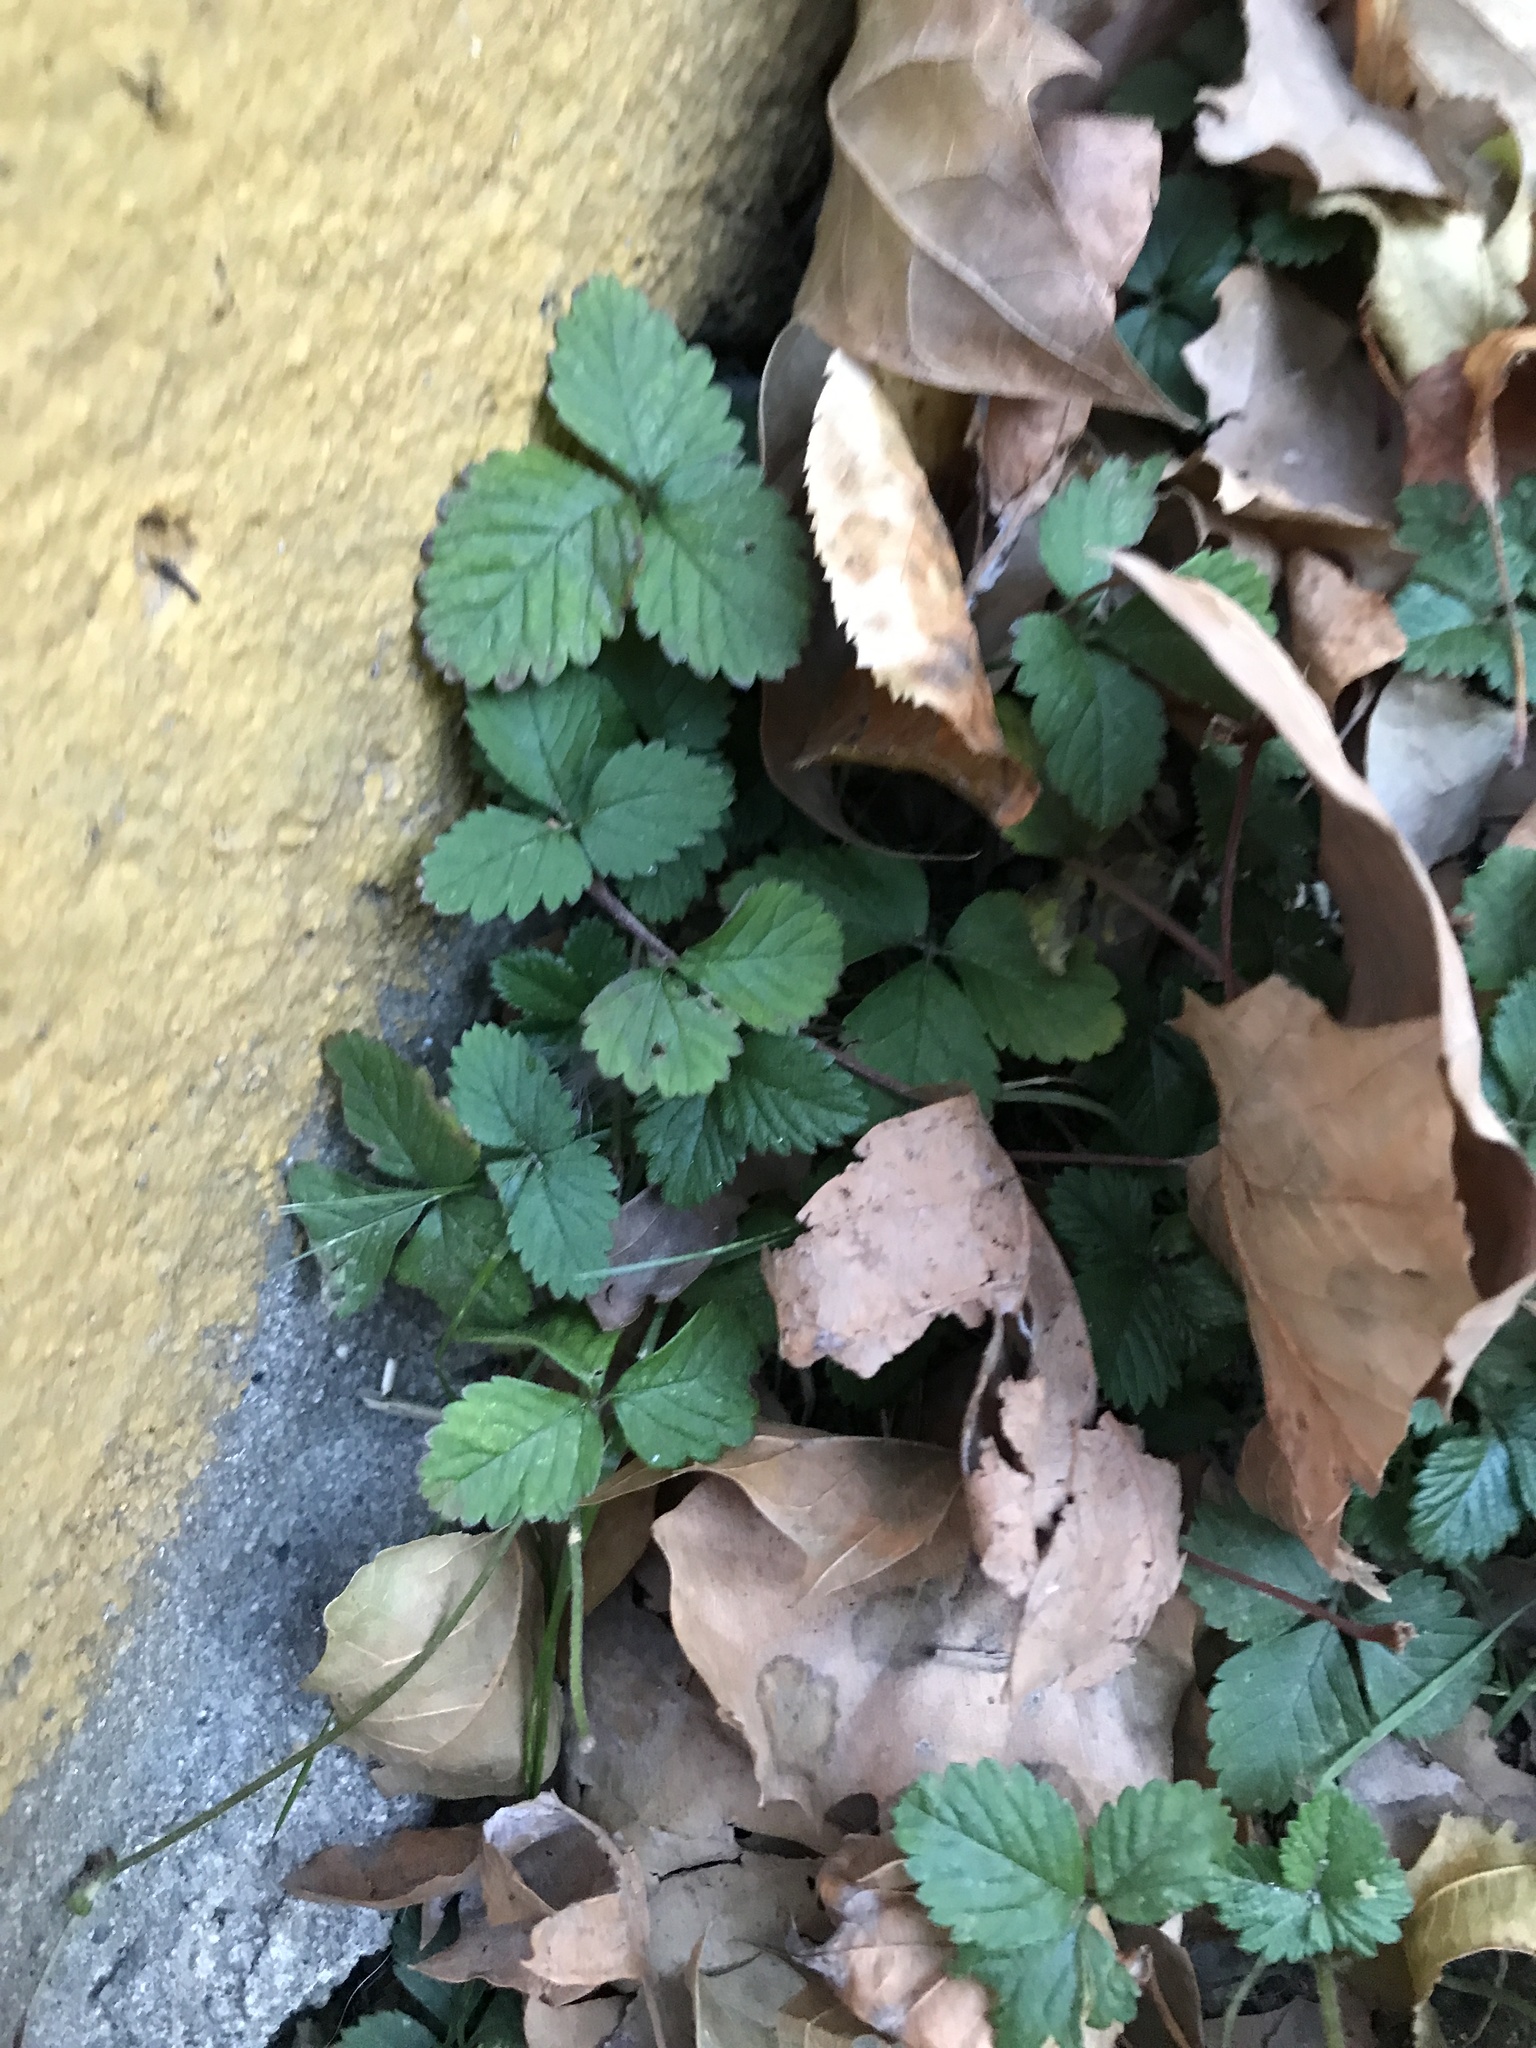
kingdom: Plantae
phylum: Tracheophyta
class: Magnoliopsida
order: Rosales
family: Rosaceae
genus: Potentilla
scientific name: Potentilla indica
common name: Yellow-flowered strawberry
